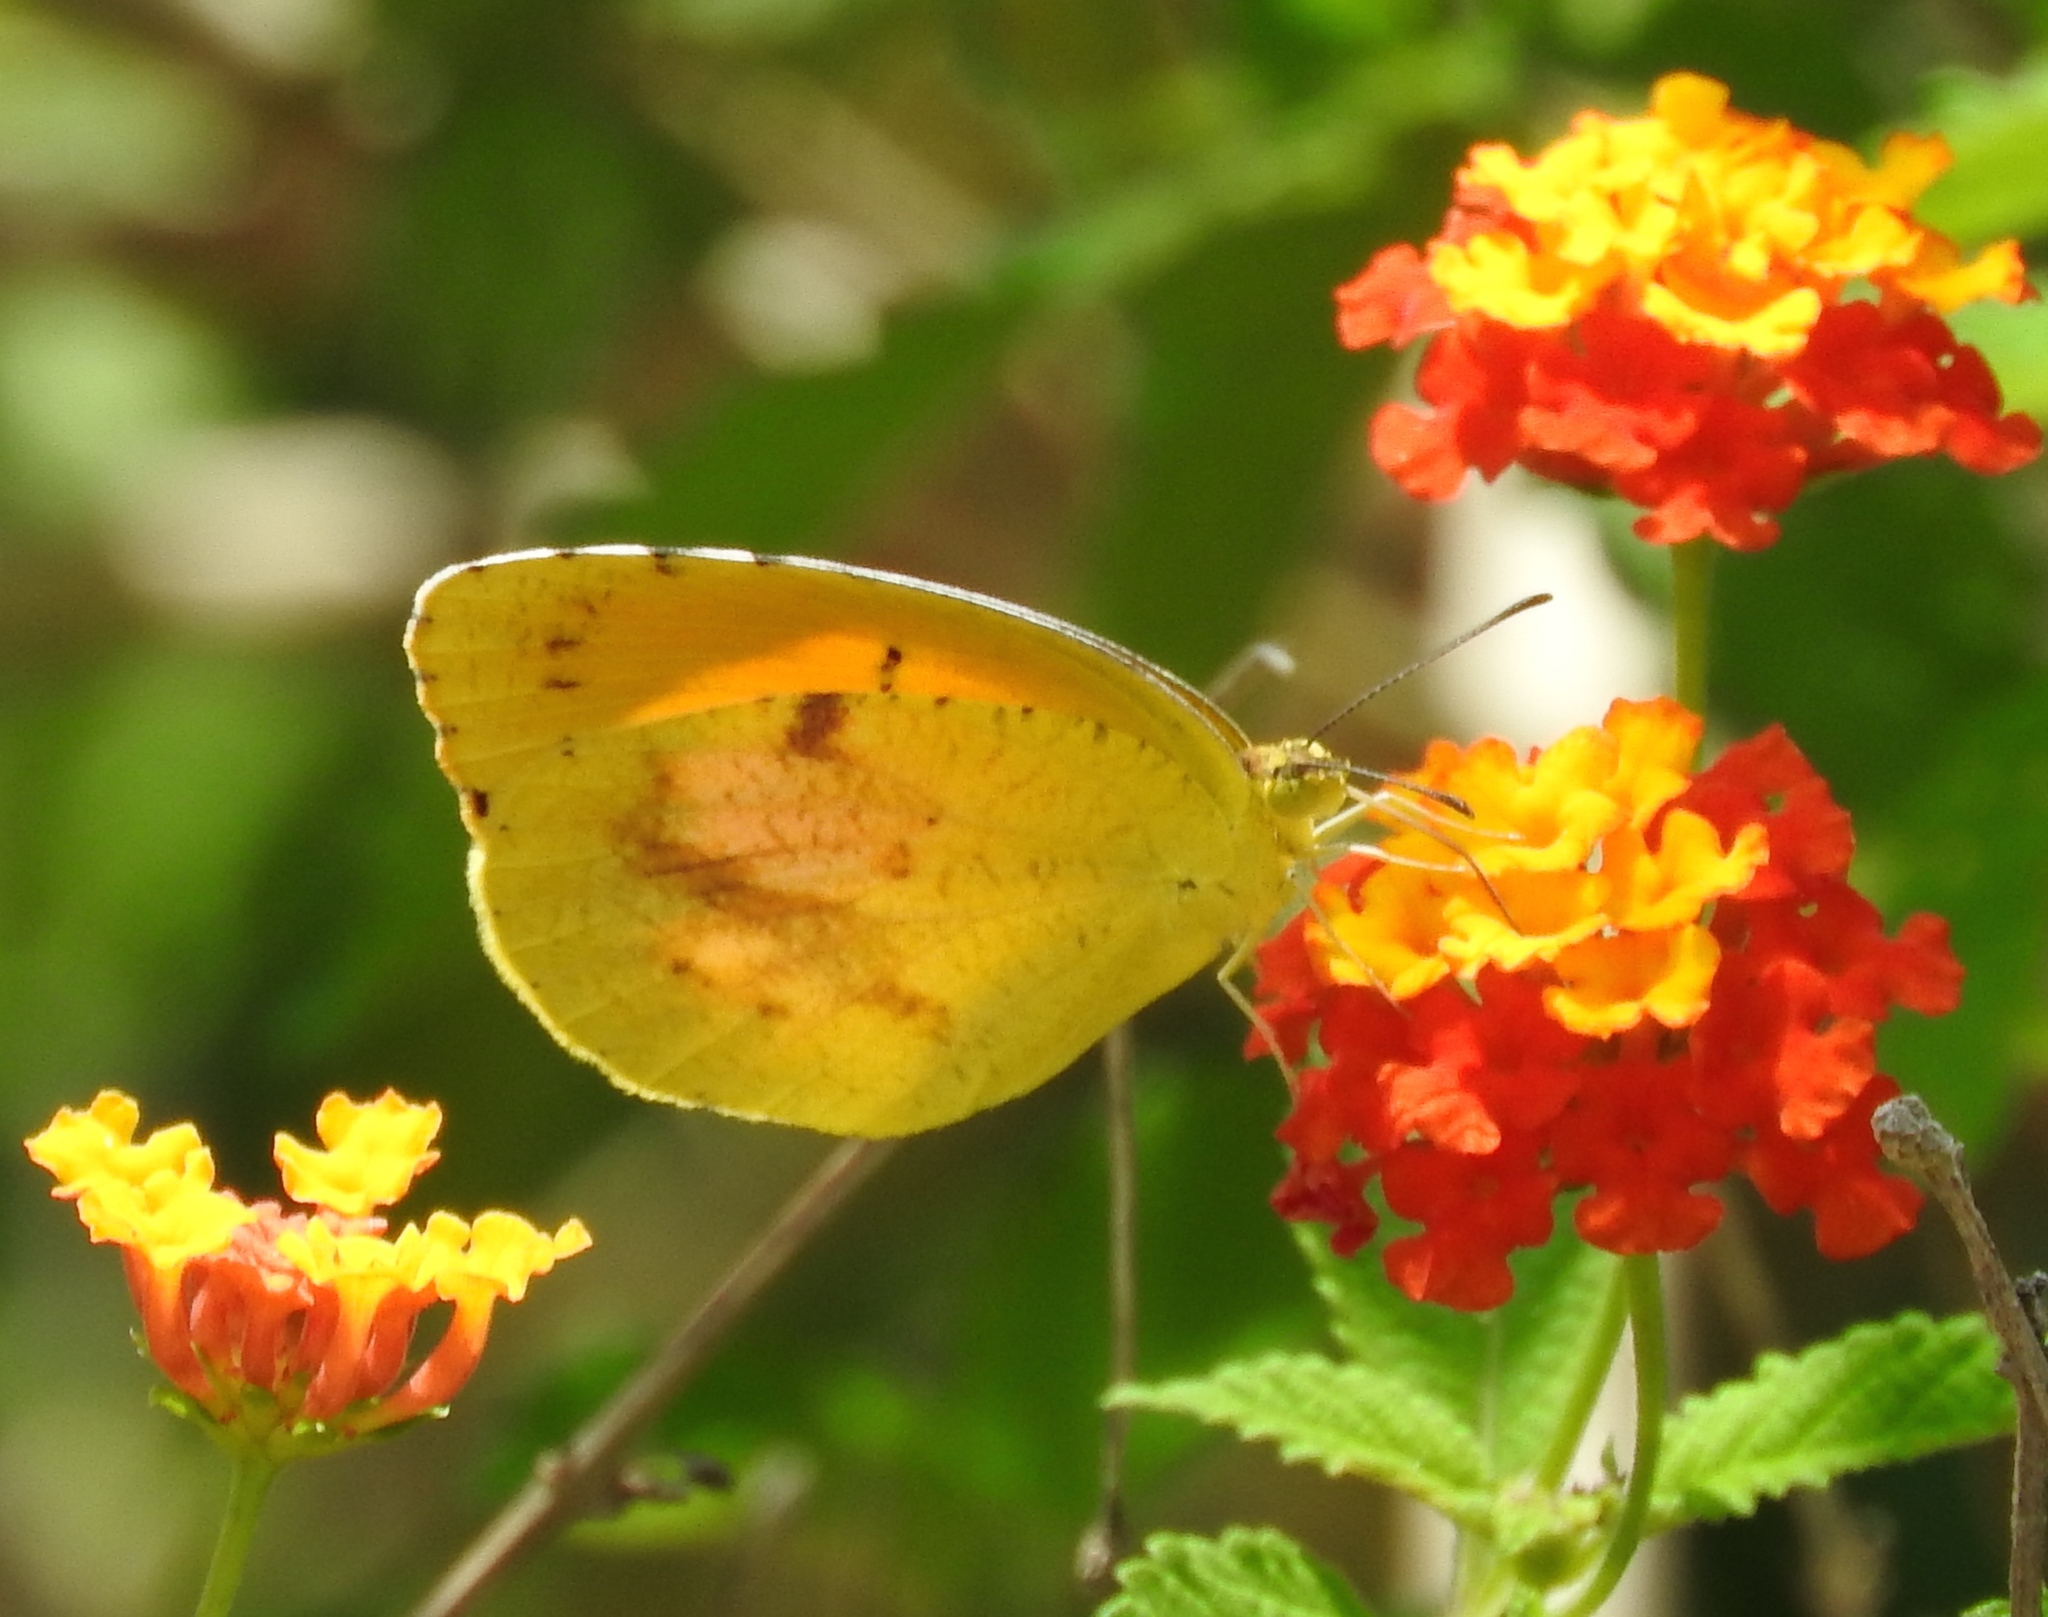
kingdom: Animalia
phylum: Arthropoda
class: Insecta
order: Lepidoptera
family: Pieridae
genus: Abaeis
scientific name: Abaeis nicippe
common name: Sleepy orange
